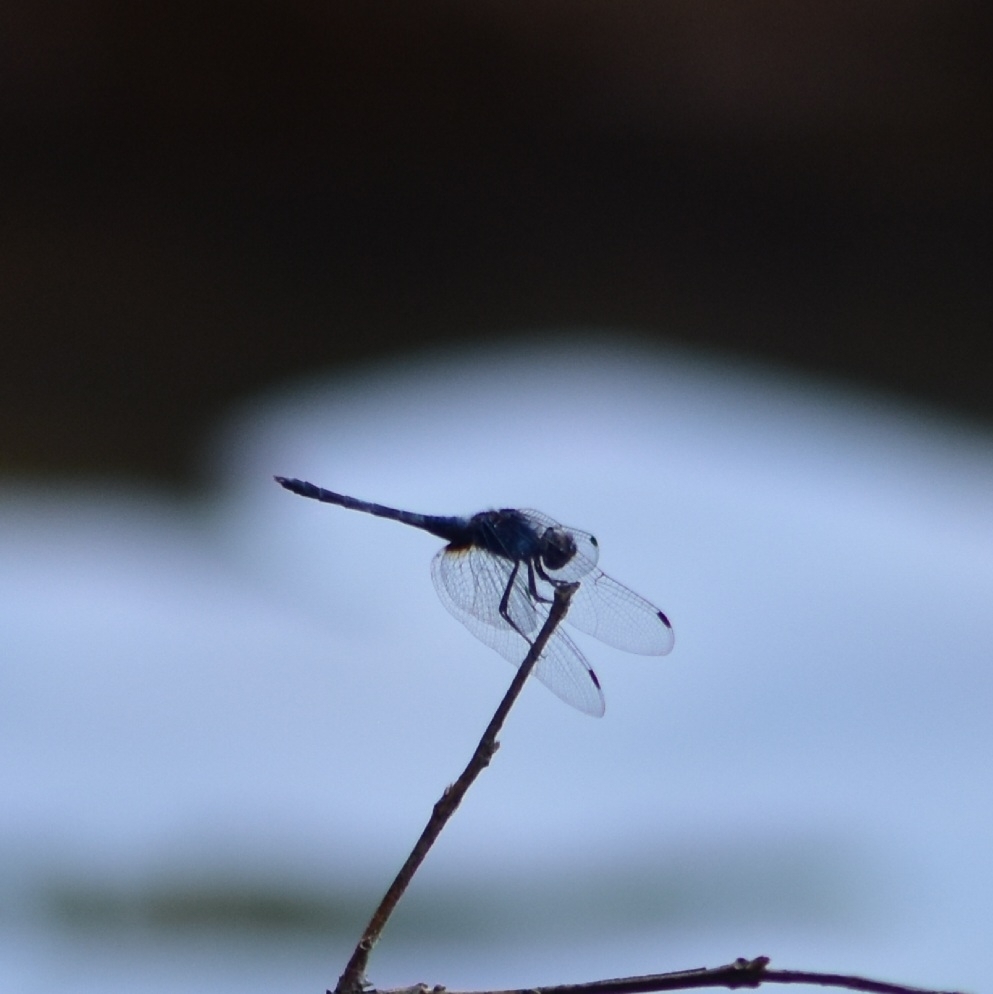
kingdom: Animalia
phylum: Arthropoda
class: Insecta
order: Odonata
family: Libellulidae
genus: Trithemis
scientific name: Trithemis festiva
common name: Indigo dropwing
